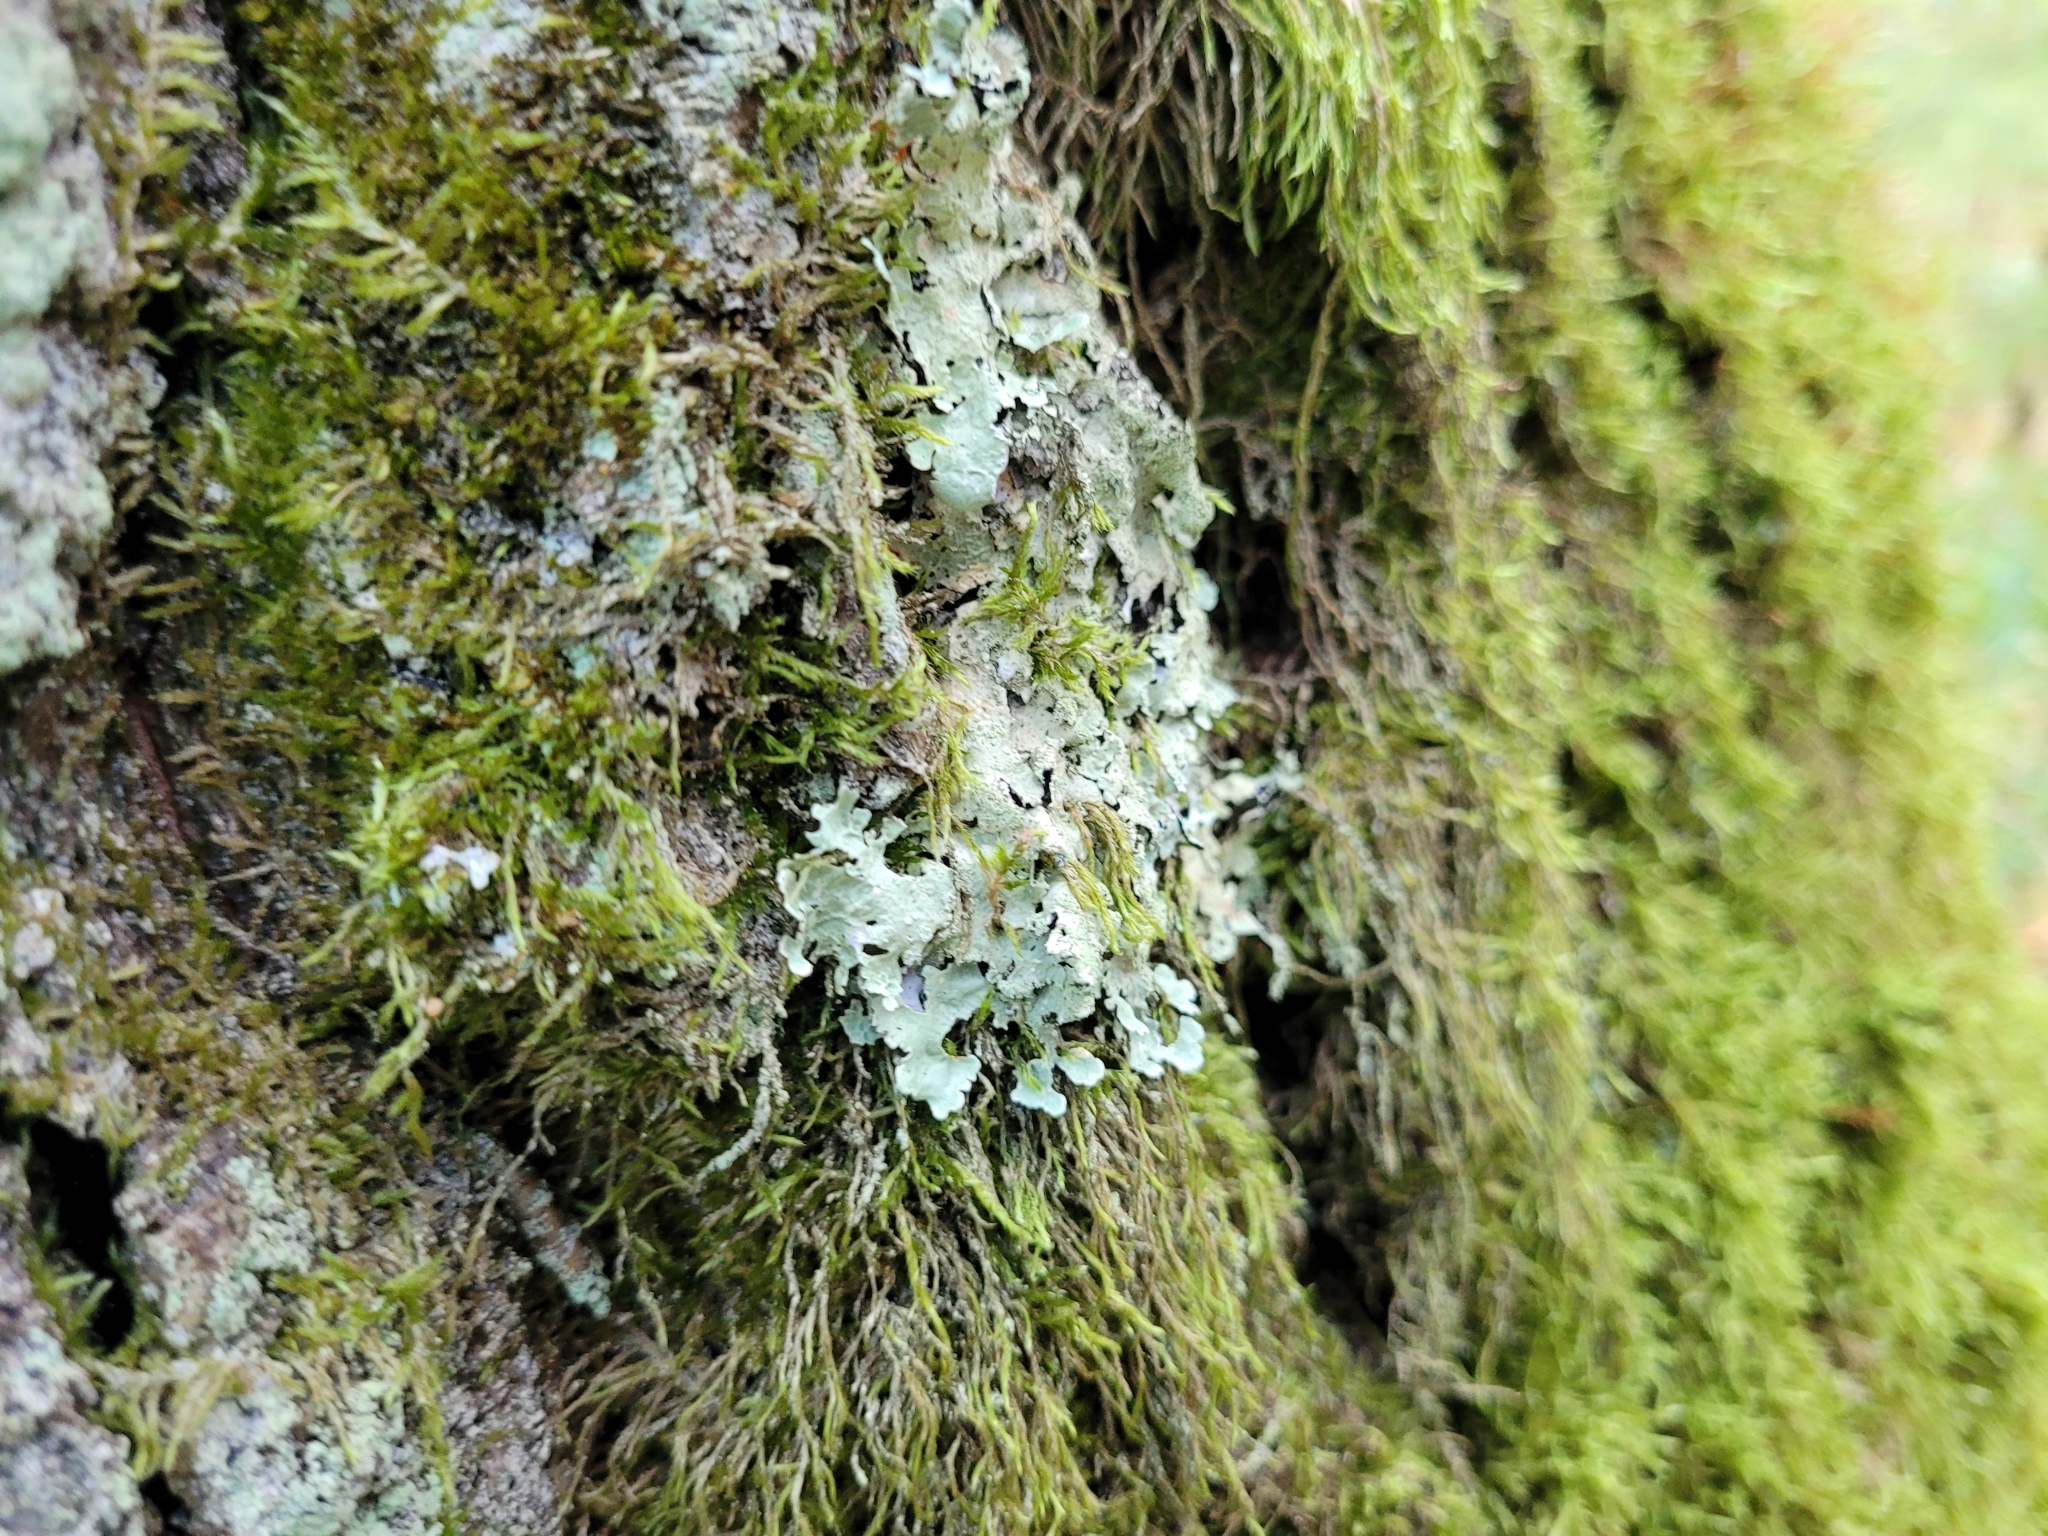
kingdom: Fungi
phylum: Ascomycota
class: Lecanoromycetes
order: Lecanorales
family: Parmeliaceae
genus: Flavoparmelia
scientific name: Flavoparmelia caperata
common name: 40-mile per hour lichen
